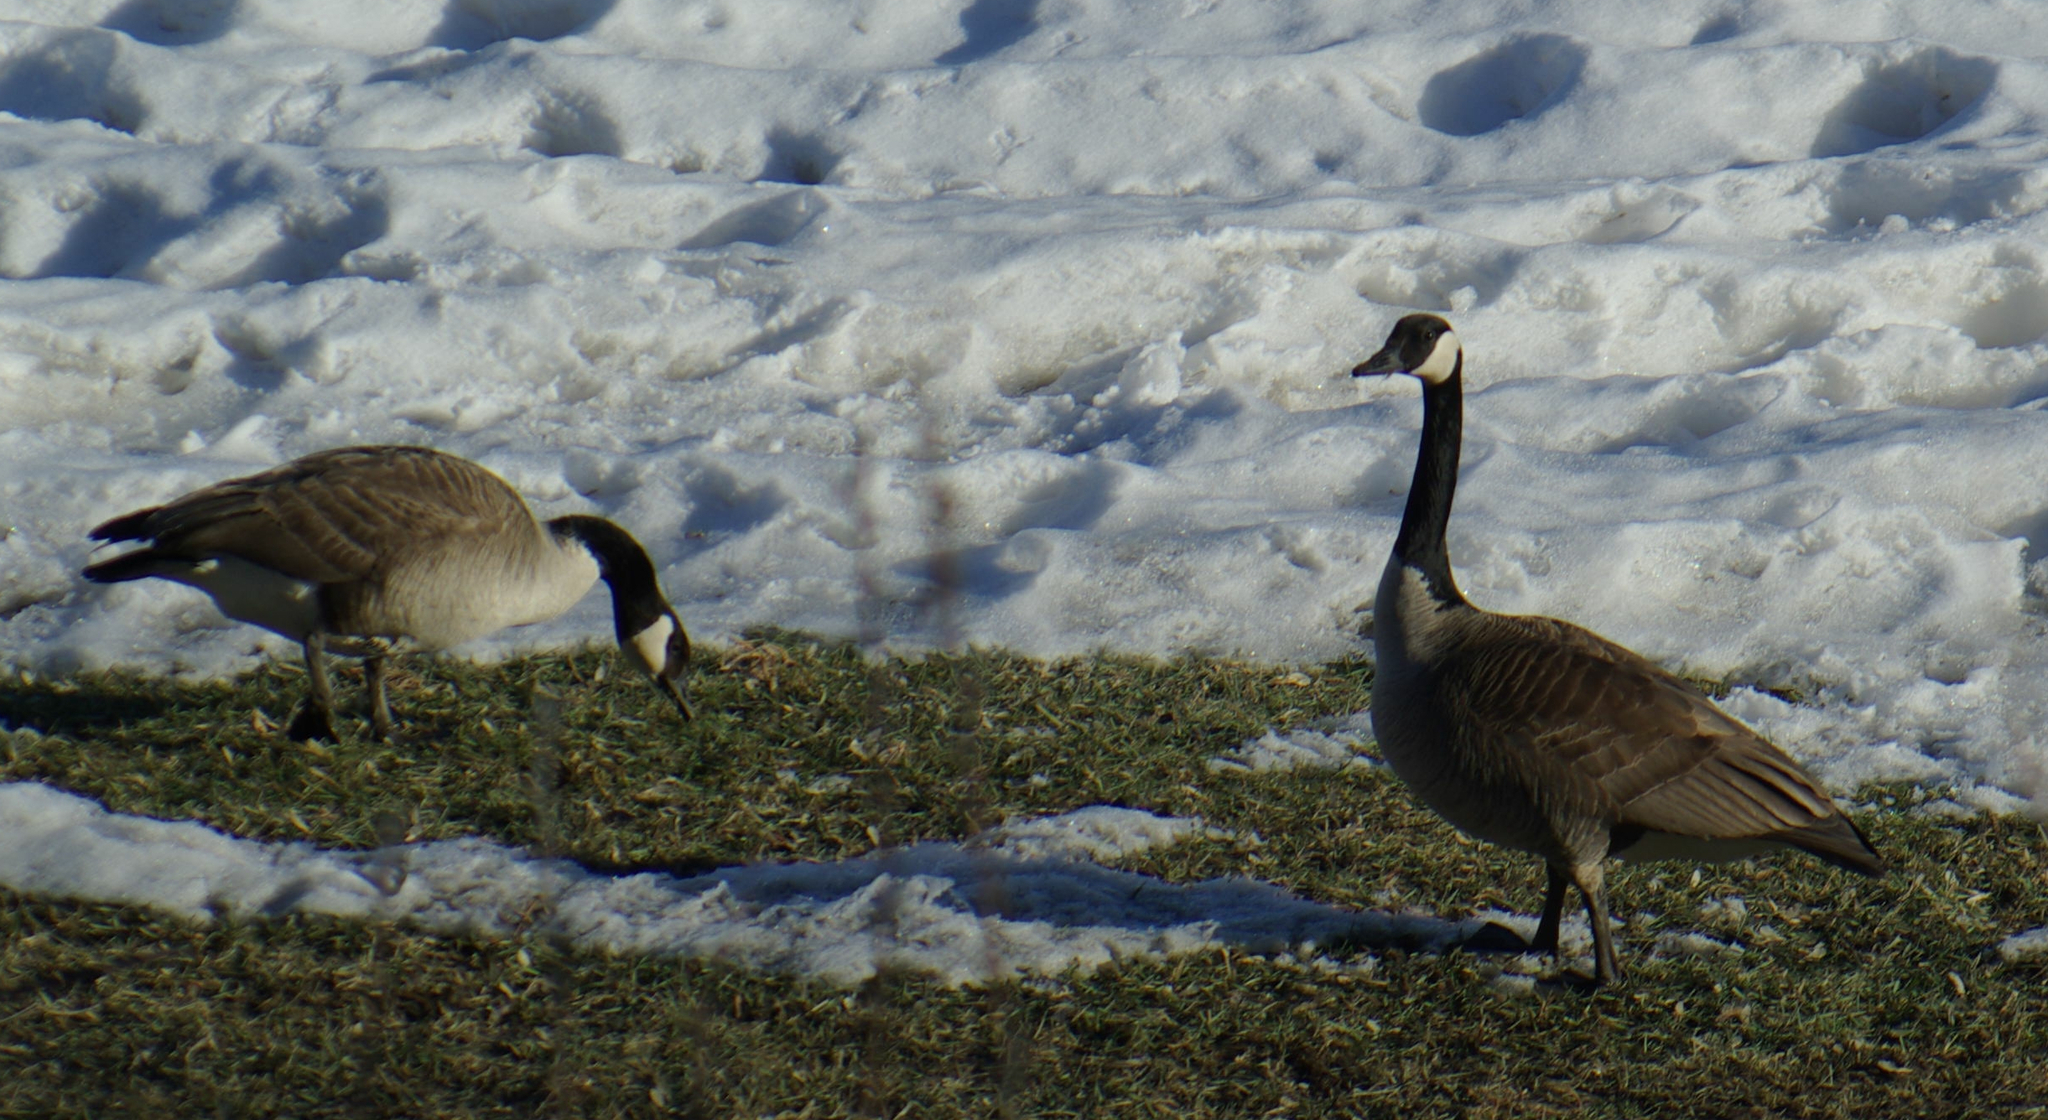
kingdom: Animalia
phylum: Chordata
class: Aves
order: Anseriformes
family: Anatidae
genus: Branta
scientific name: Branta canadensis
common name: Canada goose
